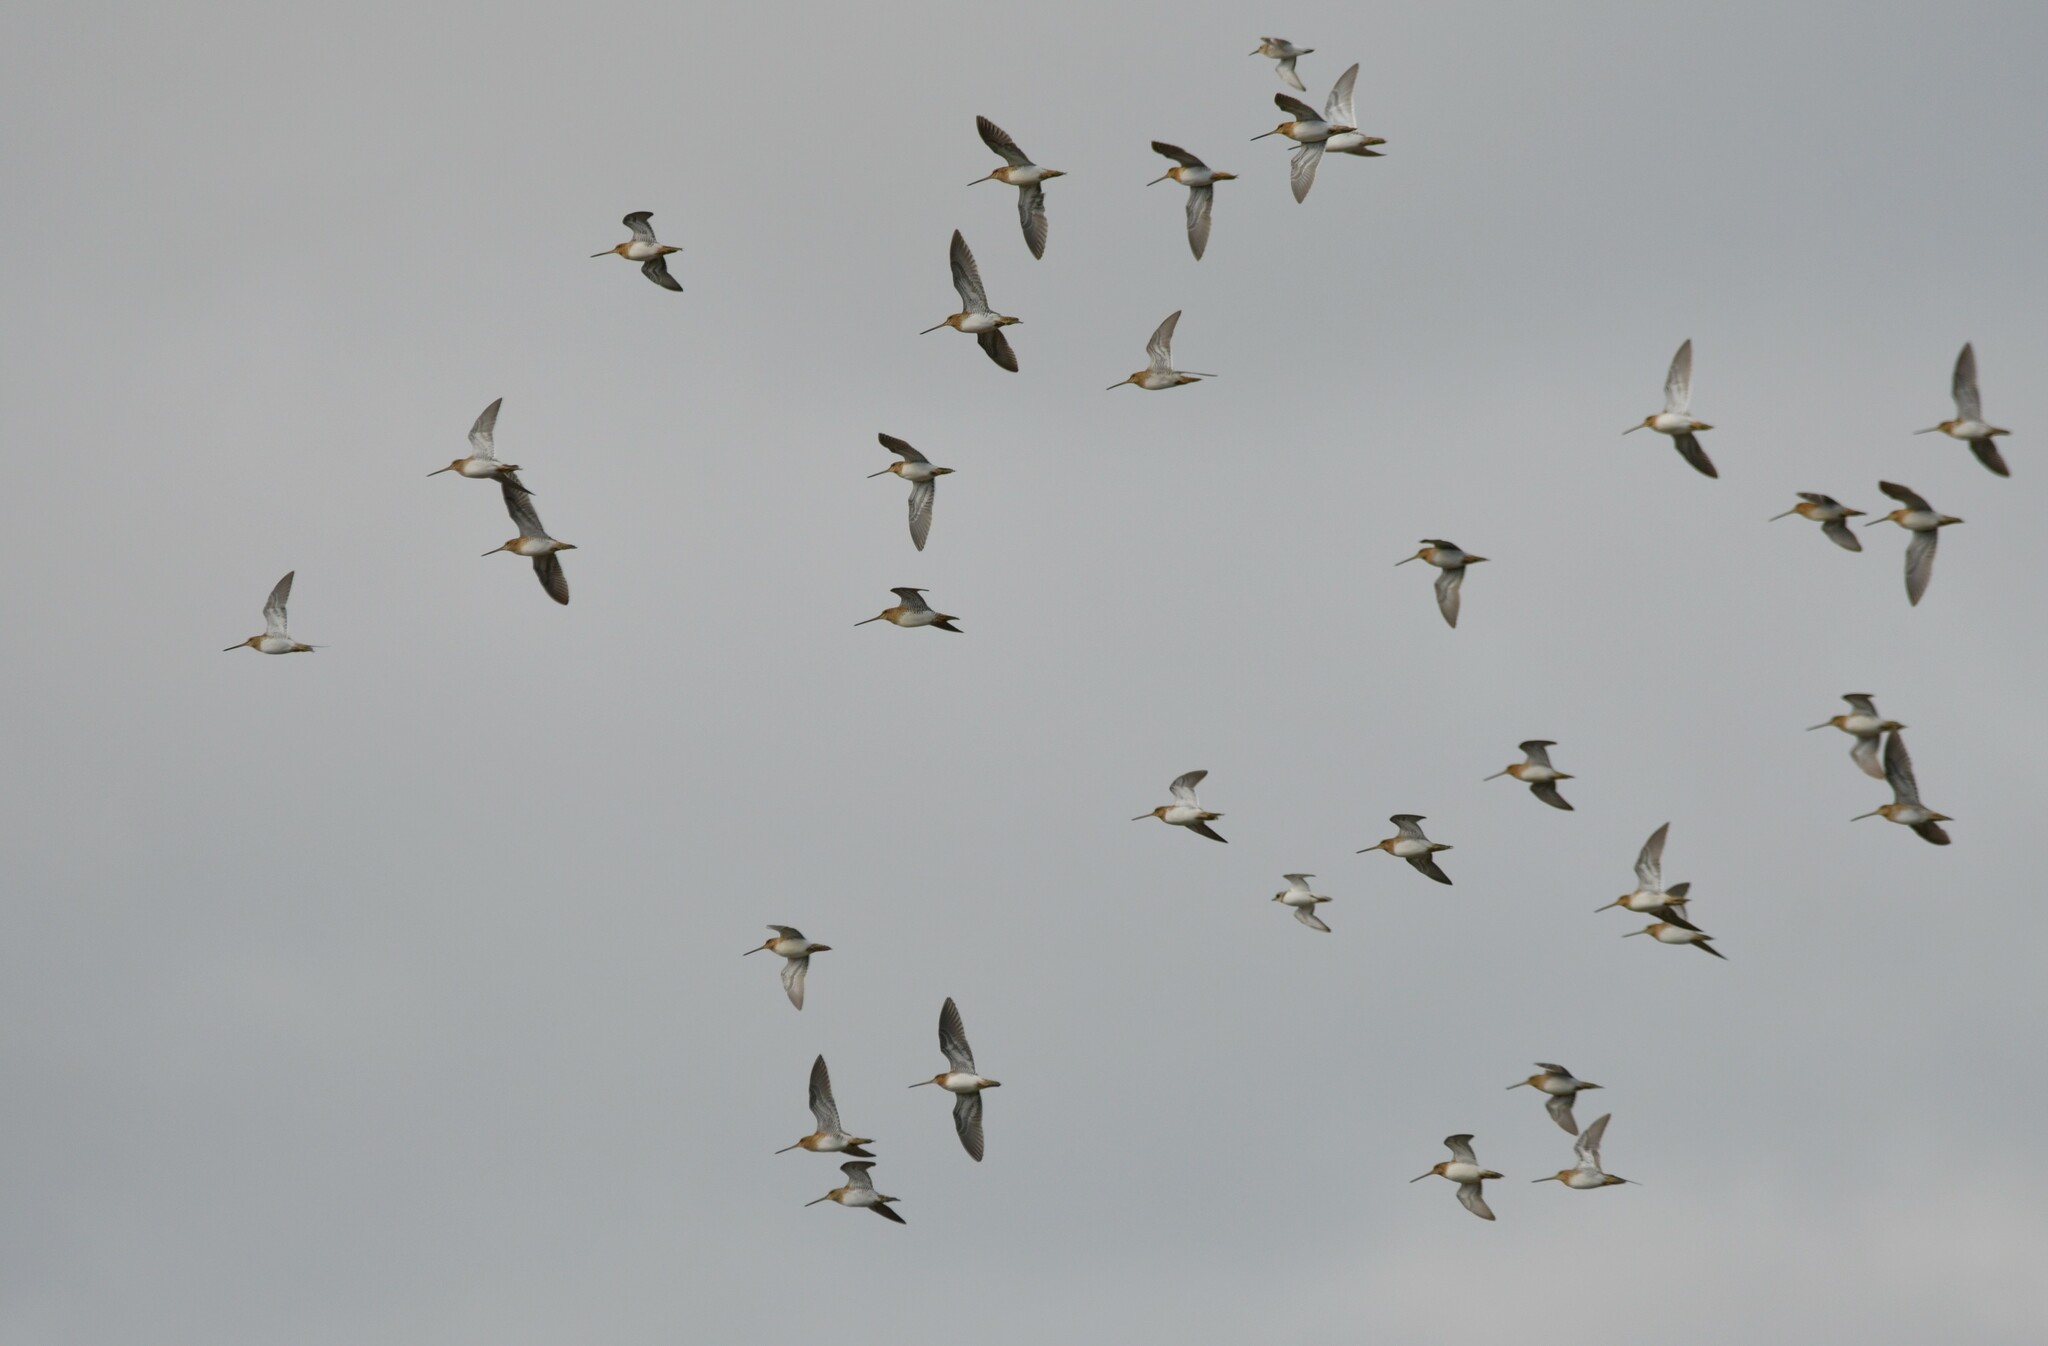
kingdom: Animalia
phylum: Chordata
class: Aves
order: Charadriiformes
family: Scolopacidae
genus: Gallinago
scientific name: Gallinago gallinago
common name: Common snipe
